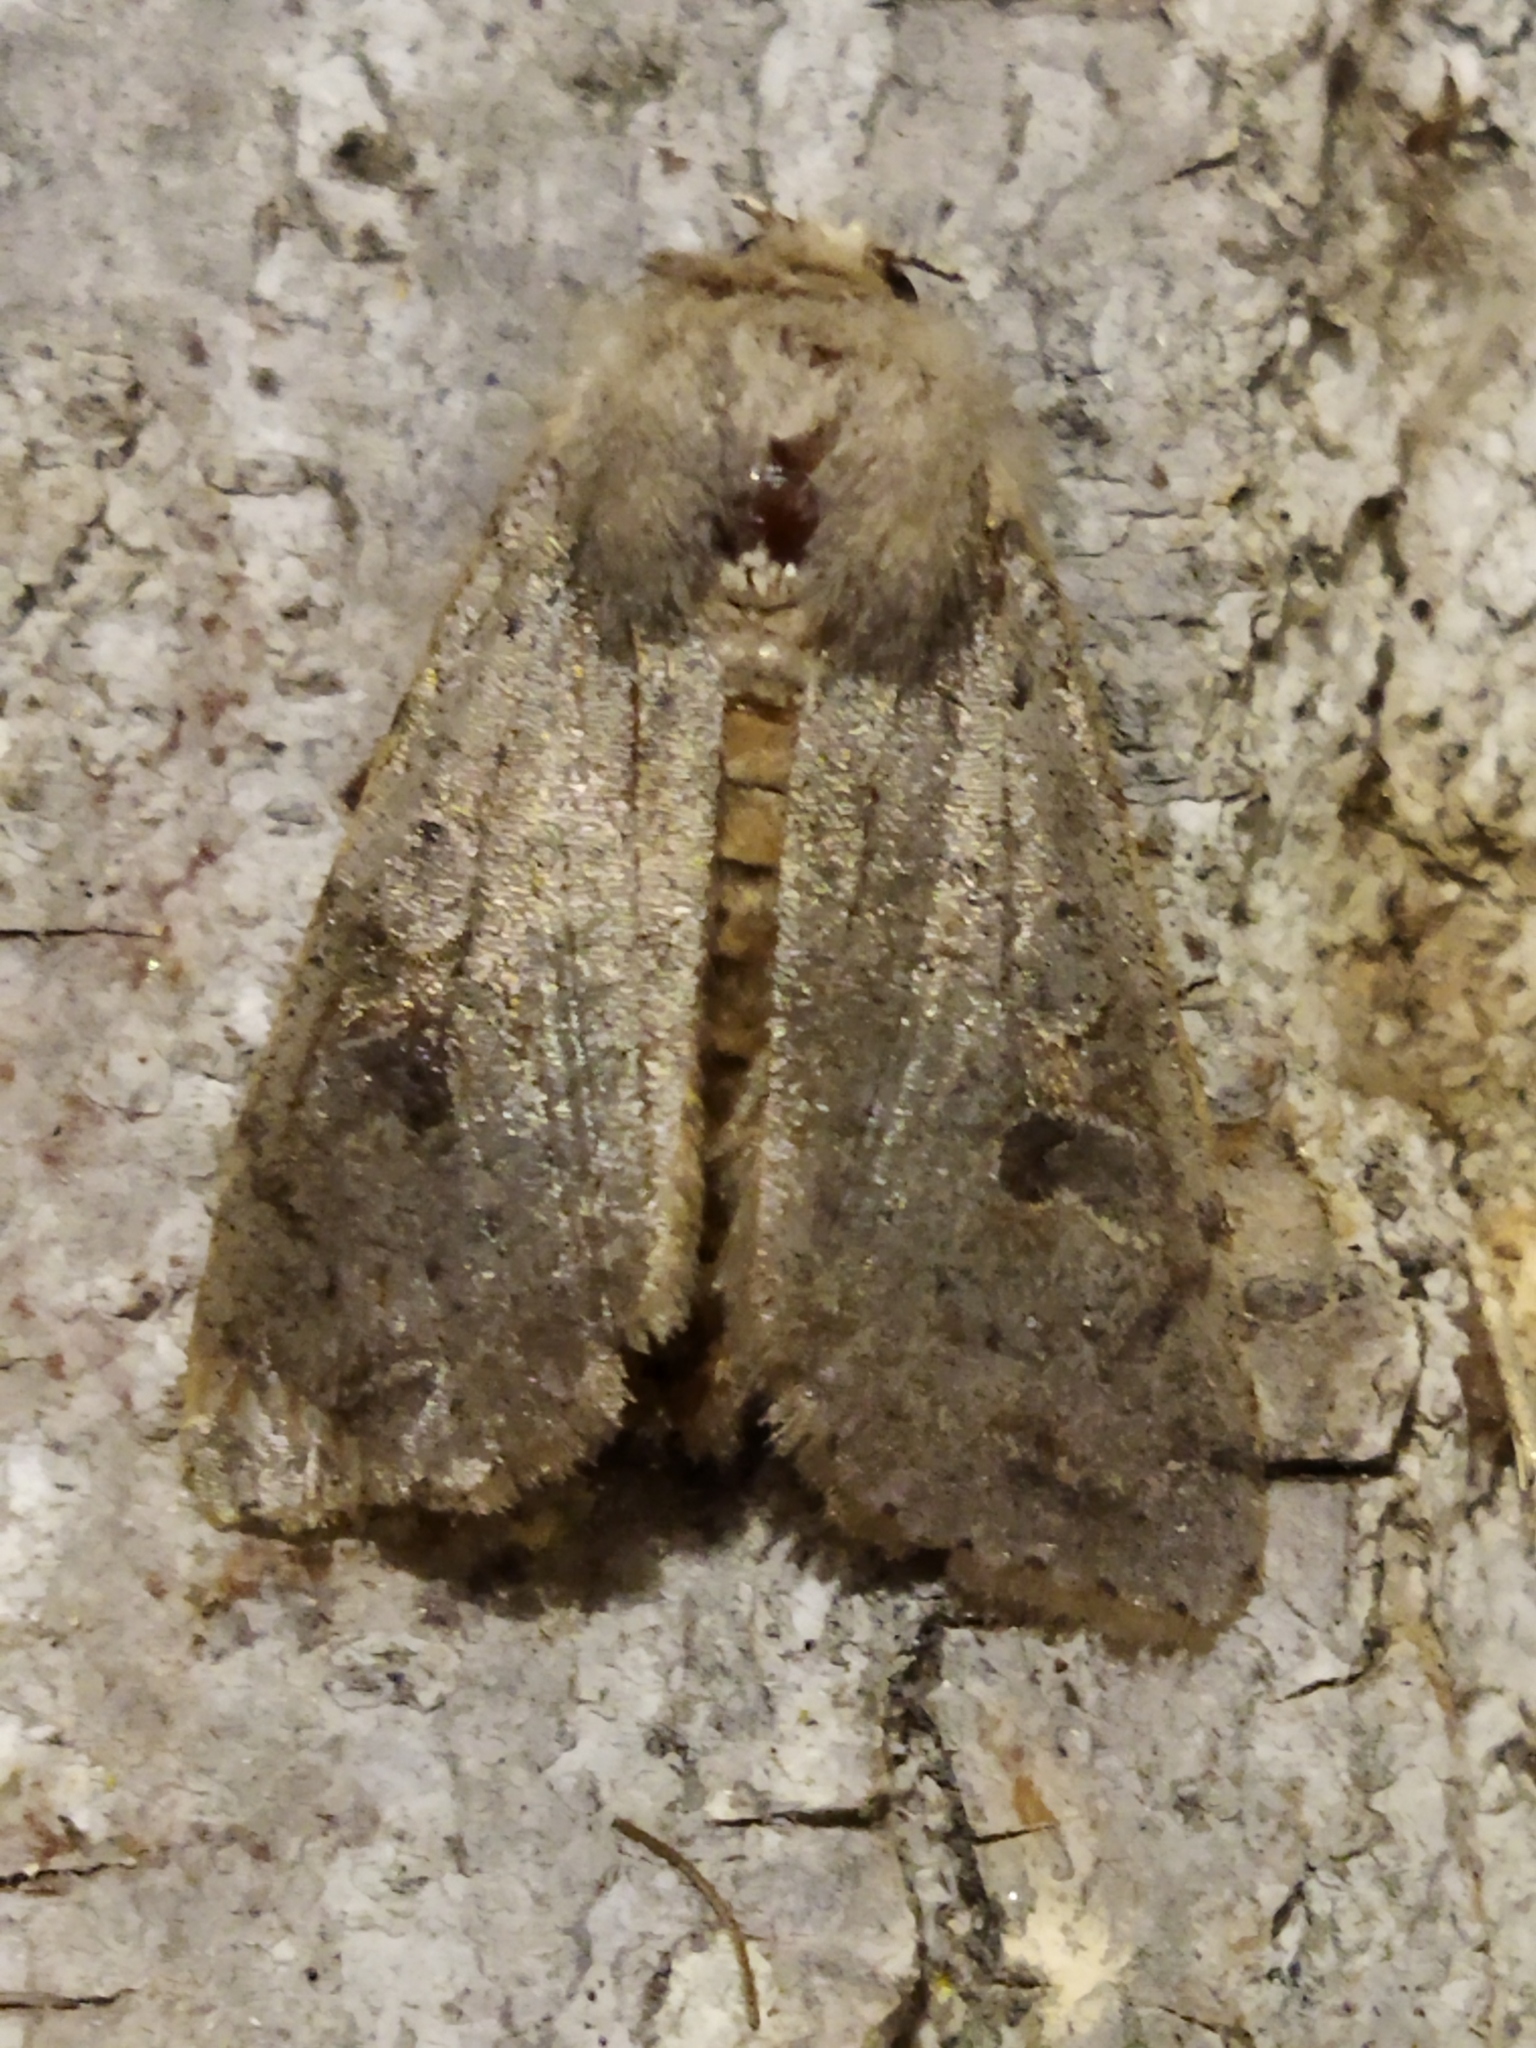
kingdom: Animalia
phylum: Arthropoda
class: Insecta
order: Lepidoptera
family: Noctuidae
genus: Orthosia
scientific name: Orthosia incerta
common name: Clouded drab
